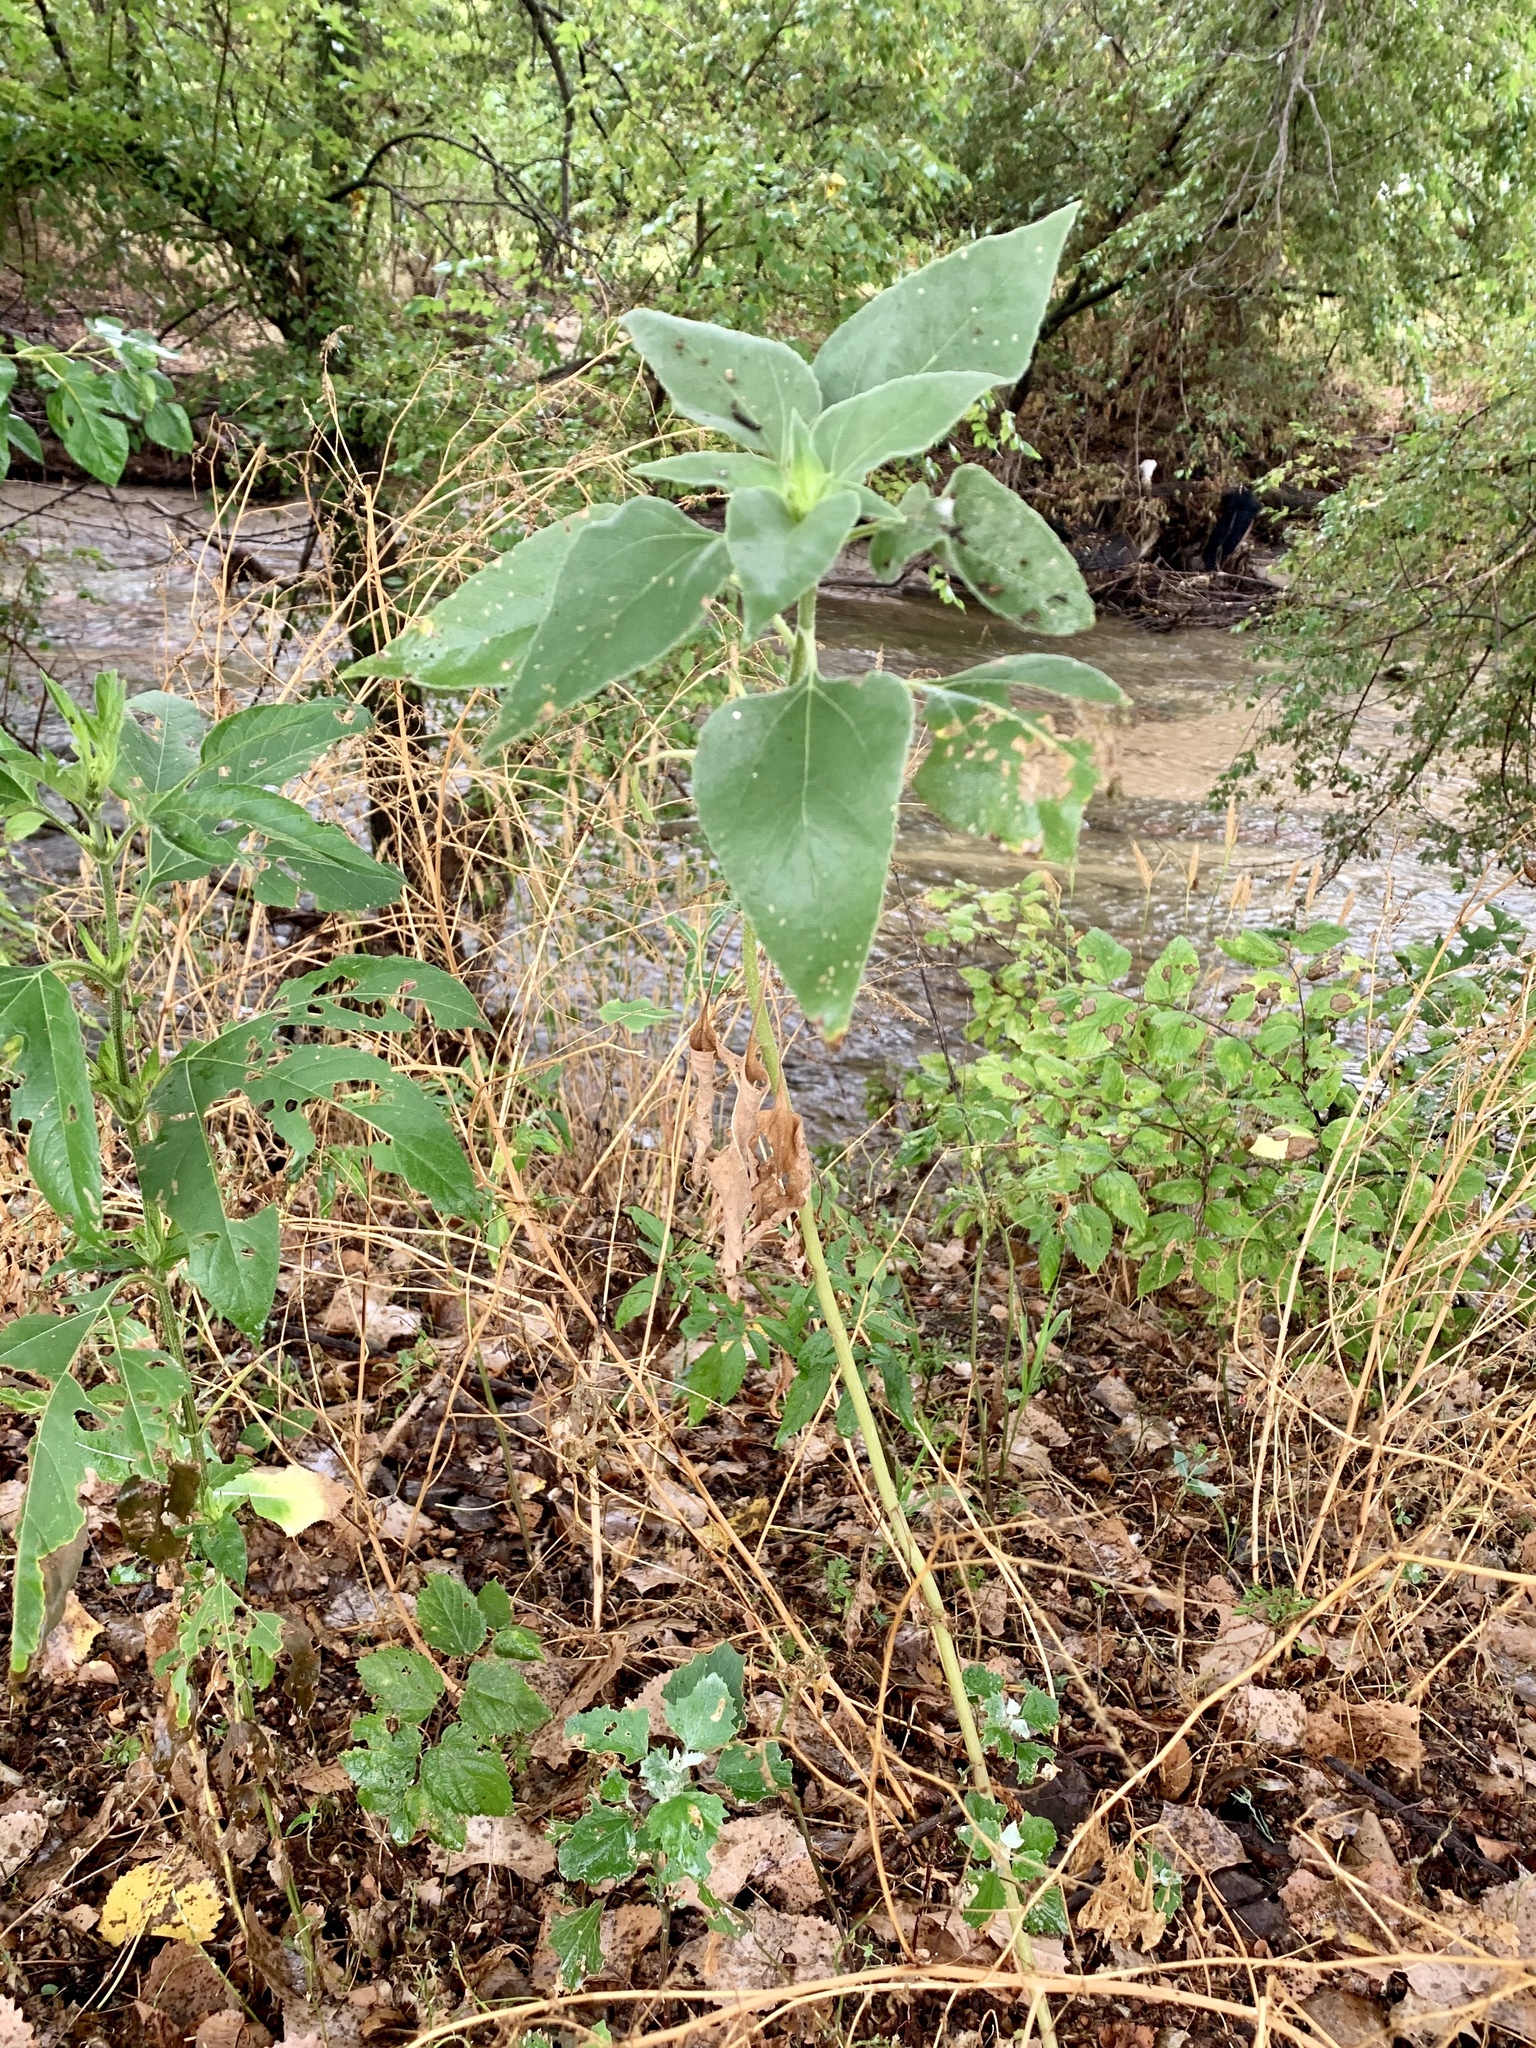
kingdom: Plantae
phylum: Tracheophyta
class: Magnoliopsida
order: Asterales
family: Asteraceae
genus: Helianthus
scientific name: Helianthus annuus
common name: Sunflower
